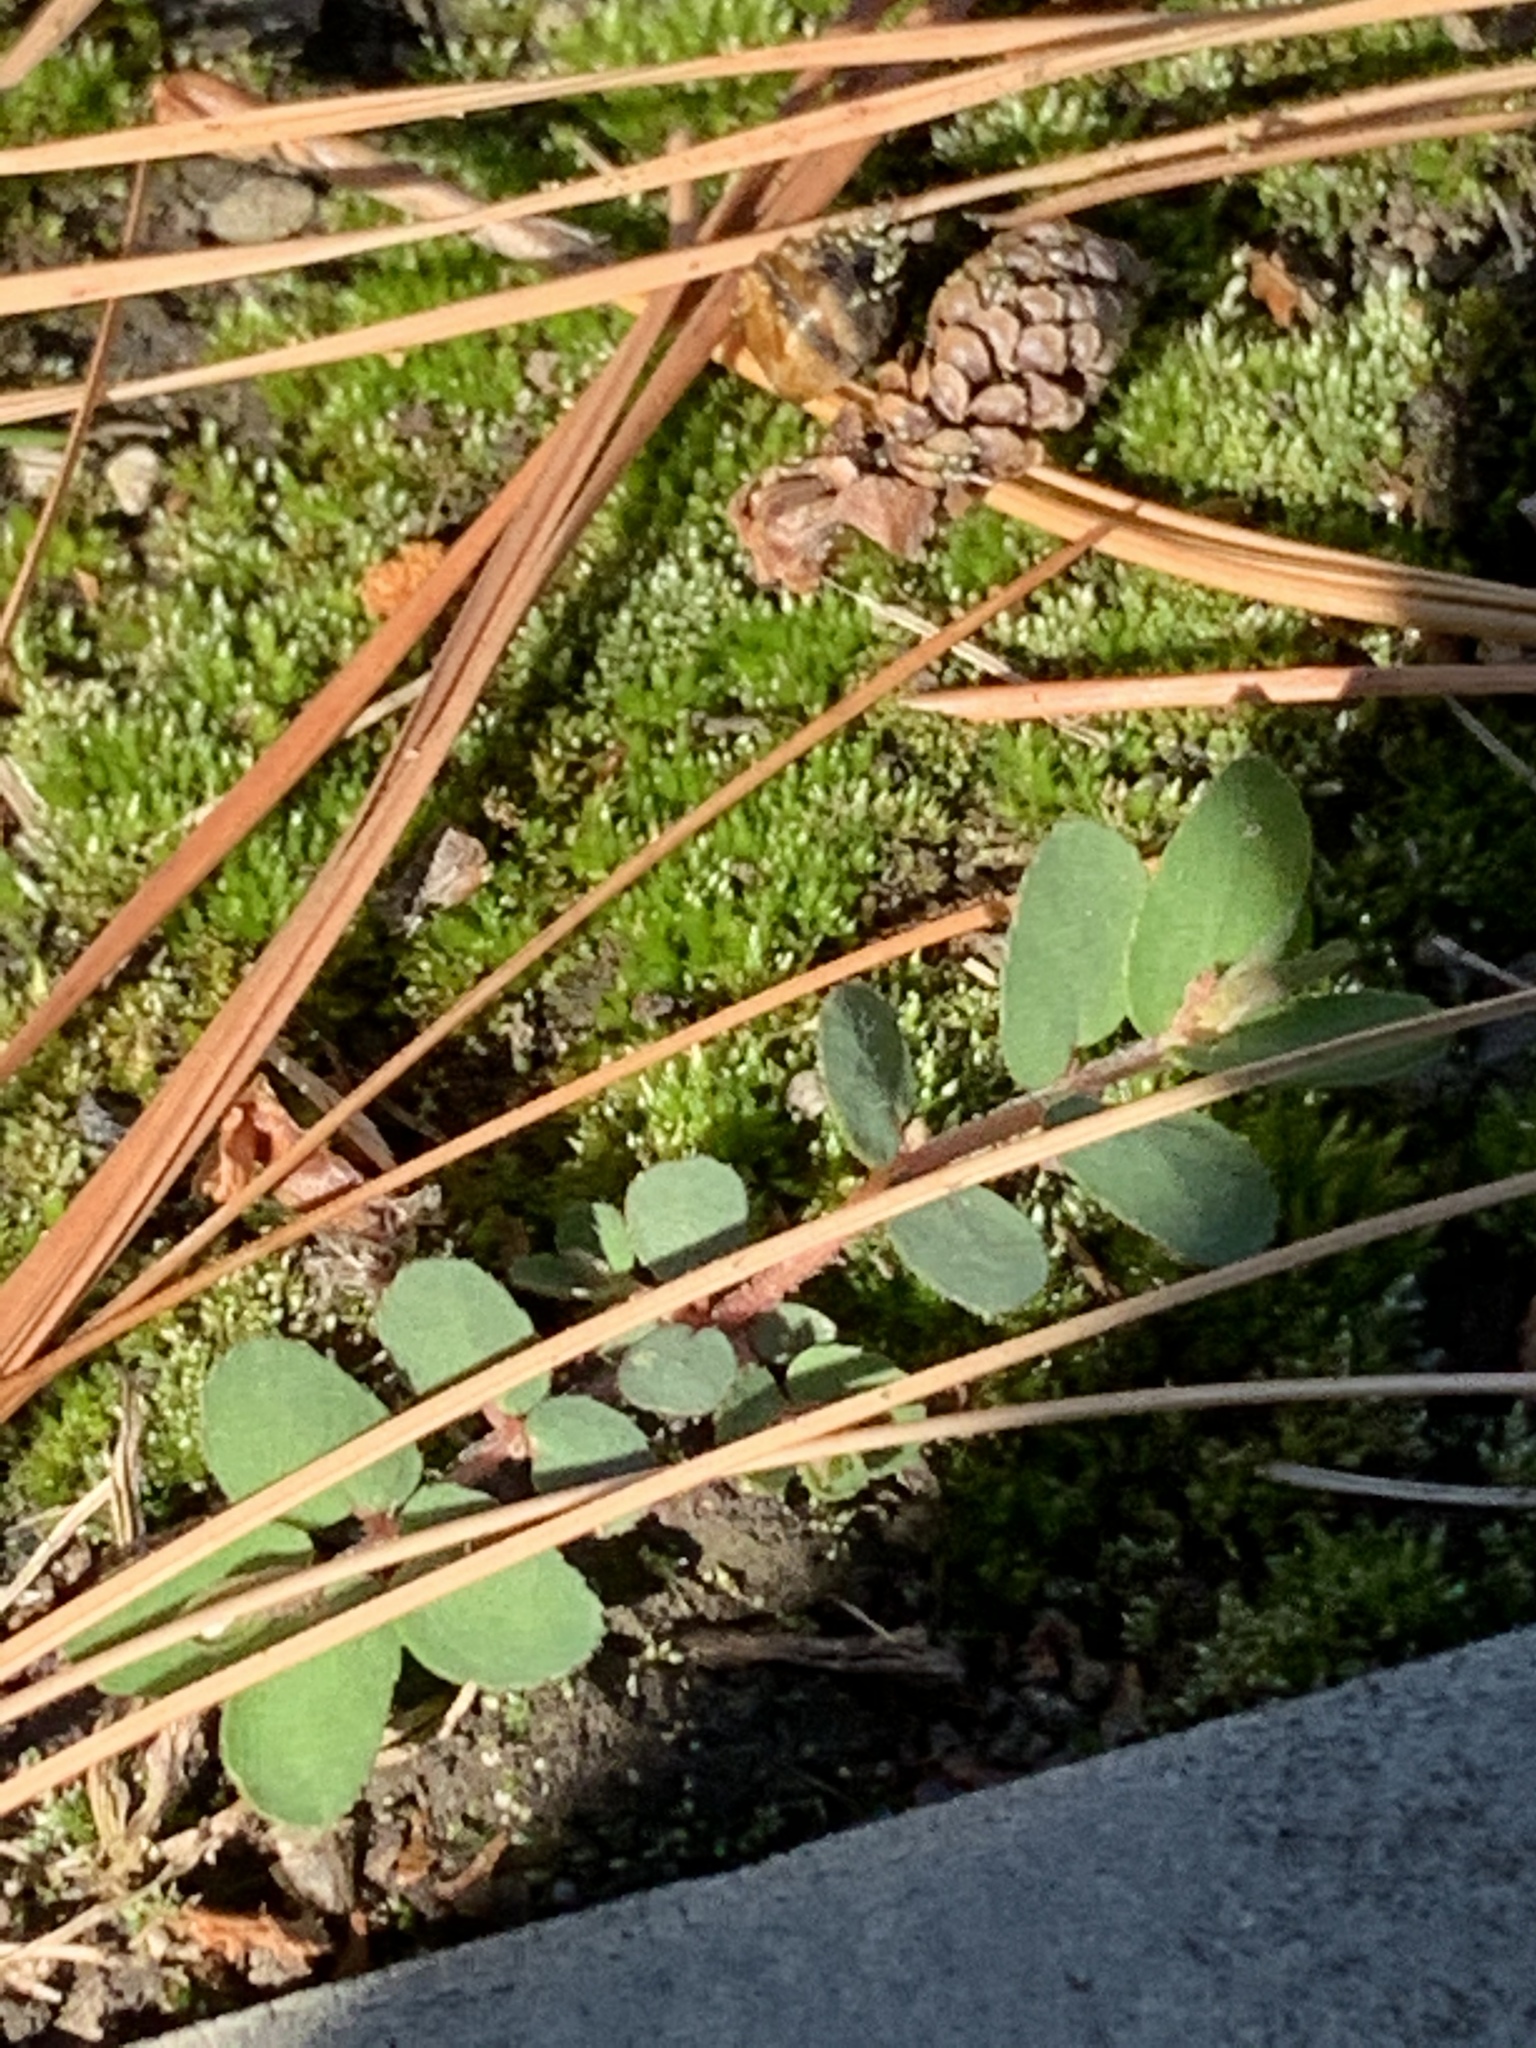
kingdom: Plantae
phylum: Tracheophyta
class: Magnoliopsida
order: Malpighiales
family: Euphorbiaceae
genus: Euphorbia
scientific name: Euphorbia maculata
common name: Spotted spurge
